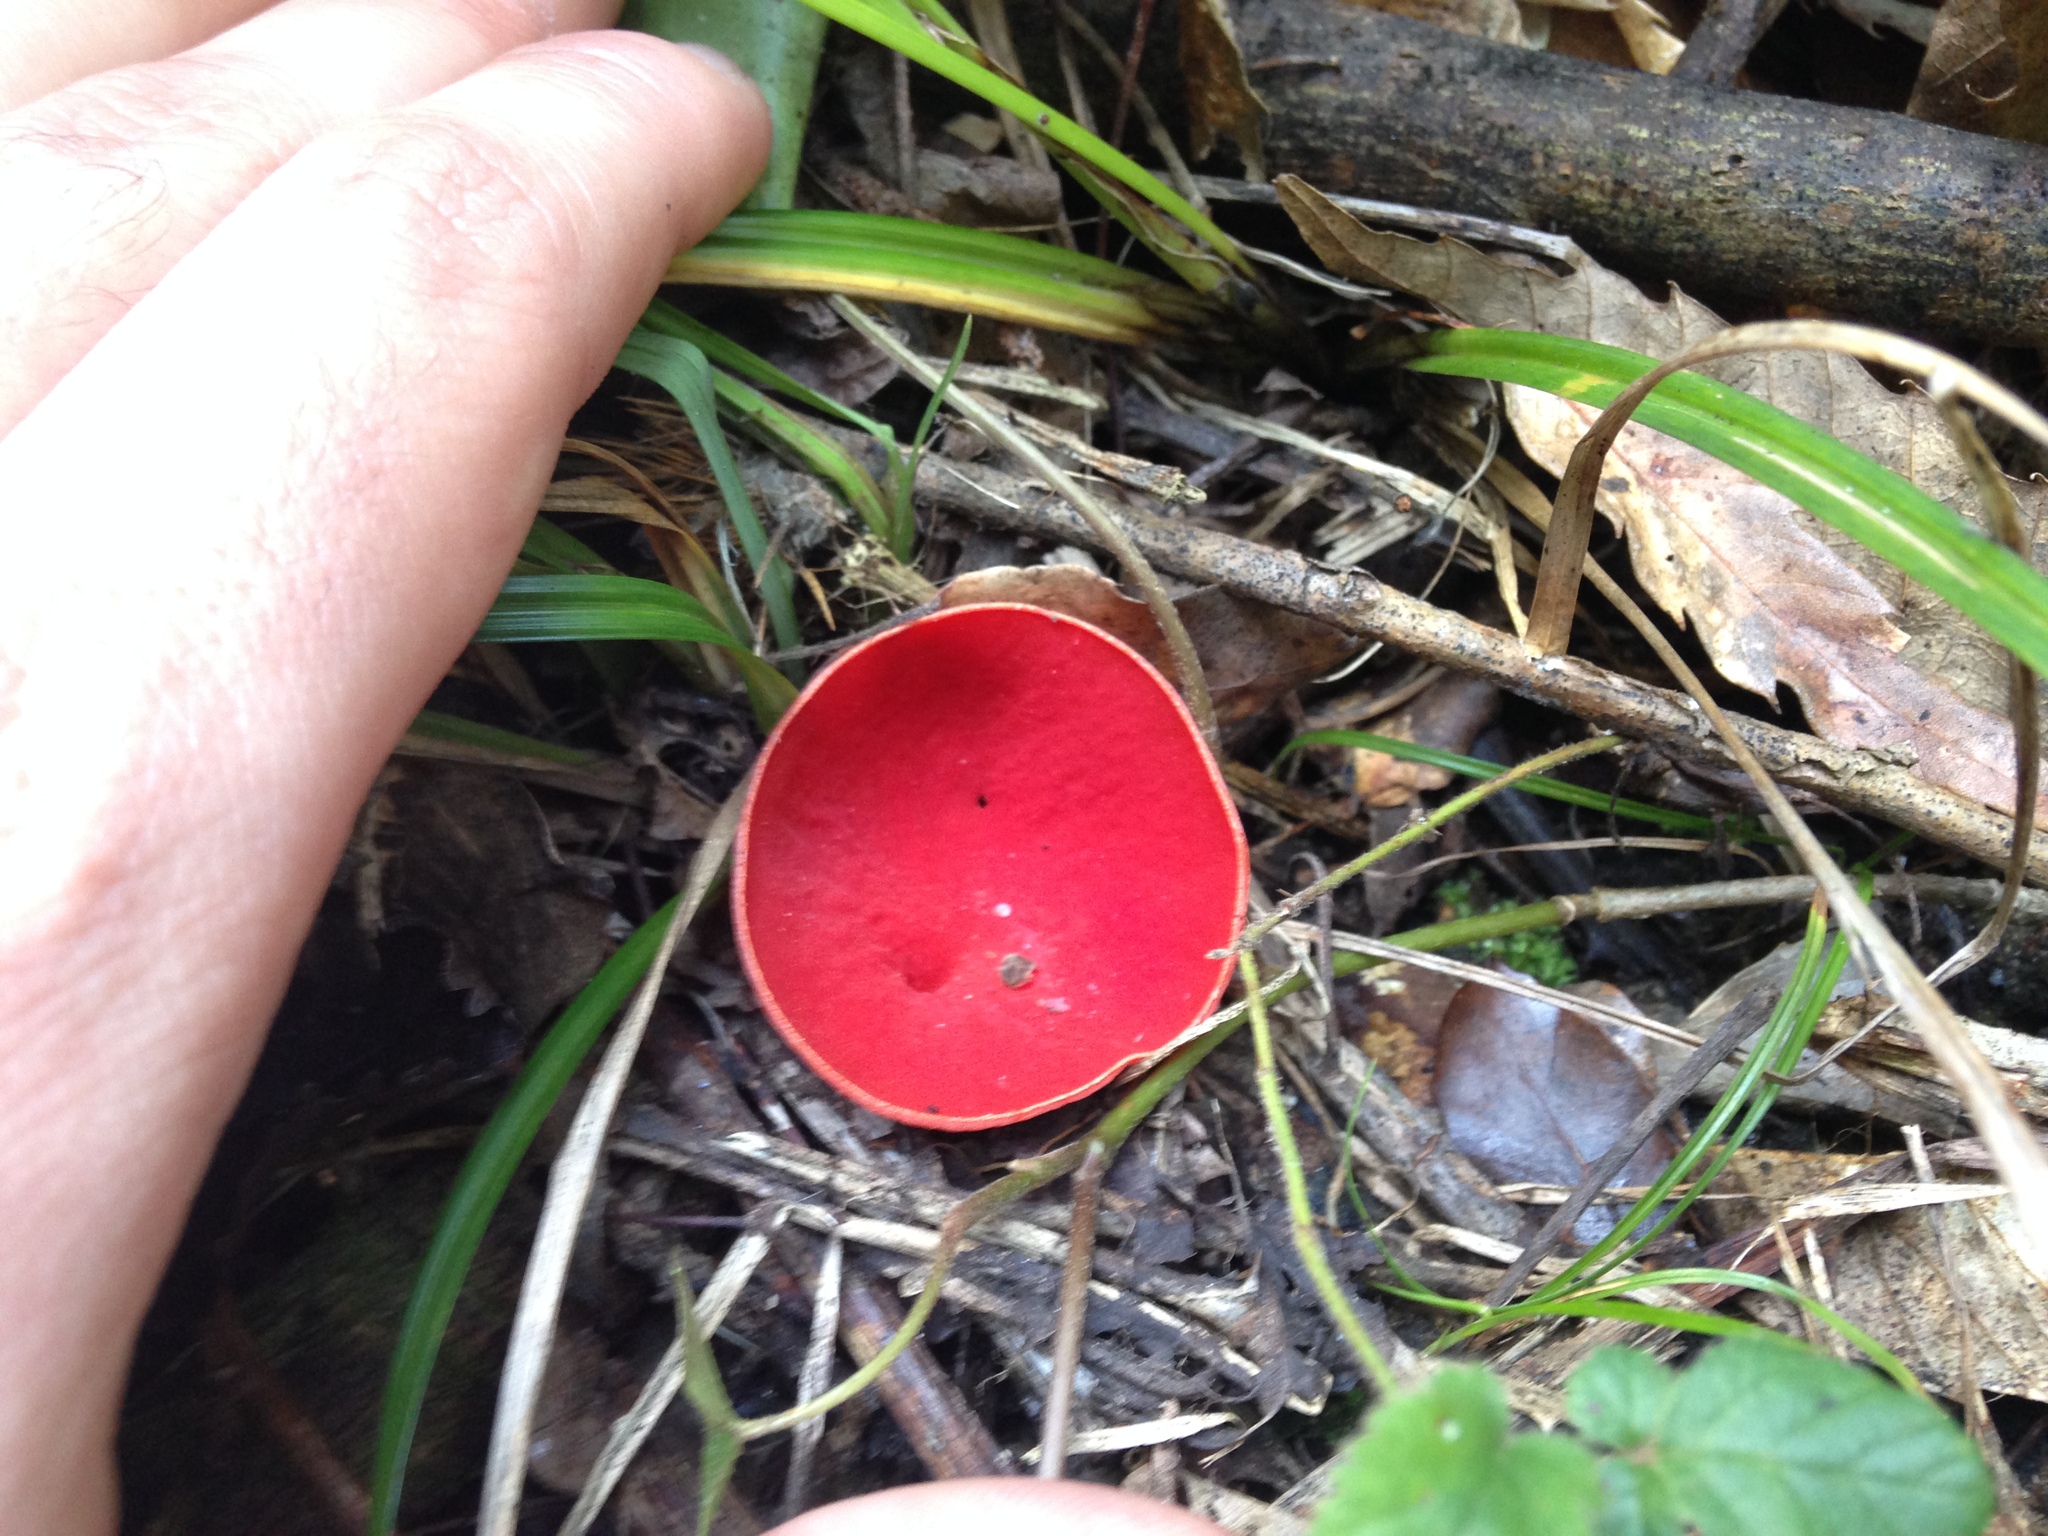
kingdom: Fungi
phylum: Ascomycota
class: Pezizomycetes
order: Pezizales
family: Sarcoscyphaceae
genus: Sarcoscypha
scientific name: Sarcoscypha
